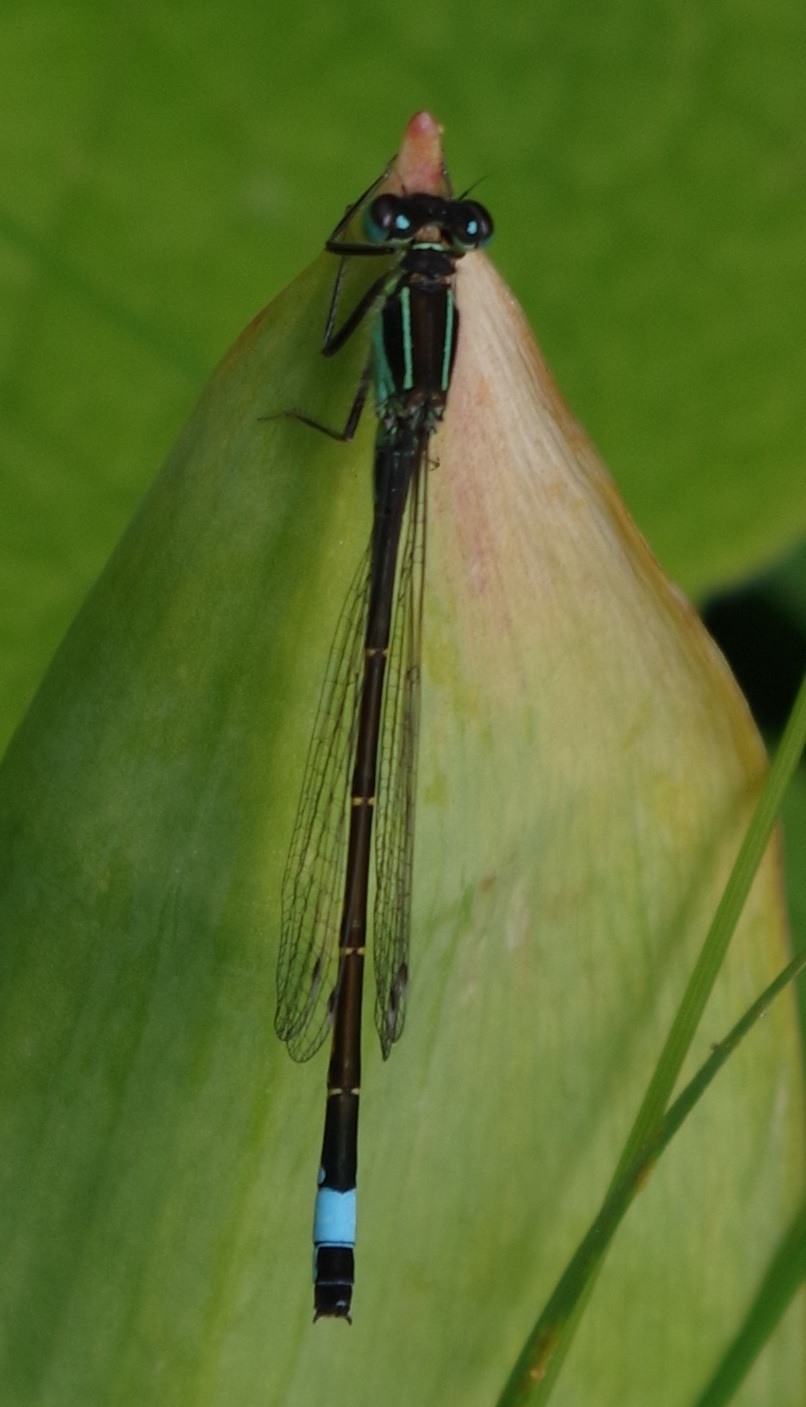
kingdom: Animalia
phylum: Arthropoda
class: Insecta
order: Odonata
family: Coenagrionidae
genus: Ischnura
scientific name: Ischnura elegans
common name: Blue-tailed damselfly
